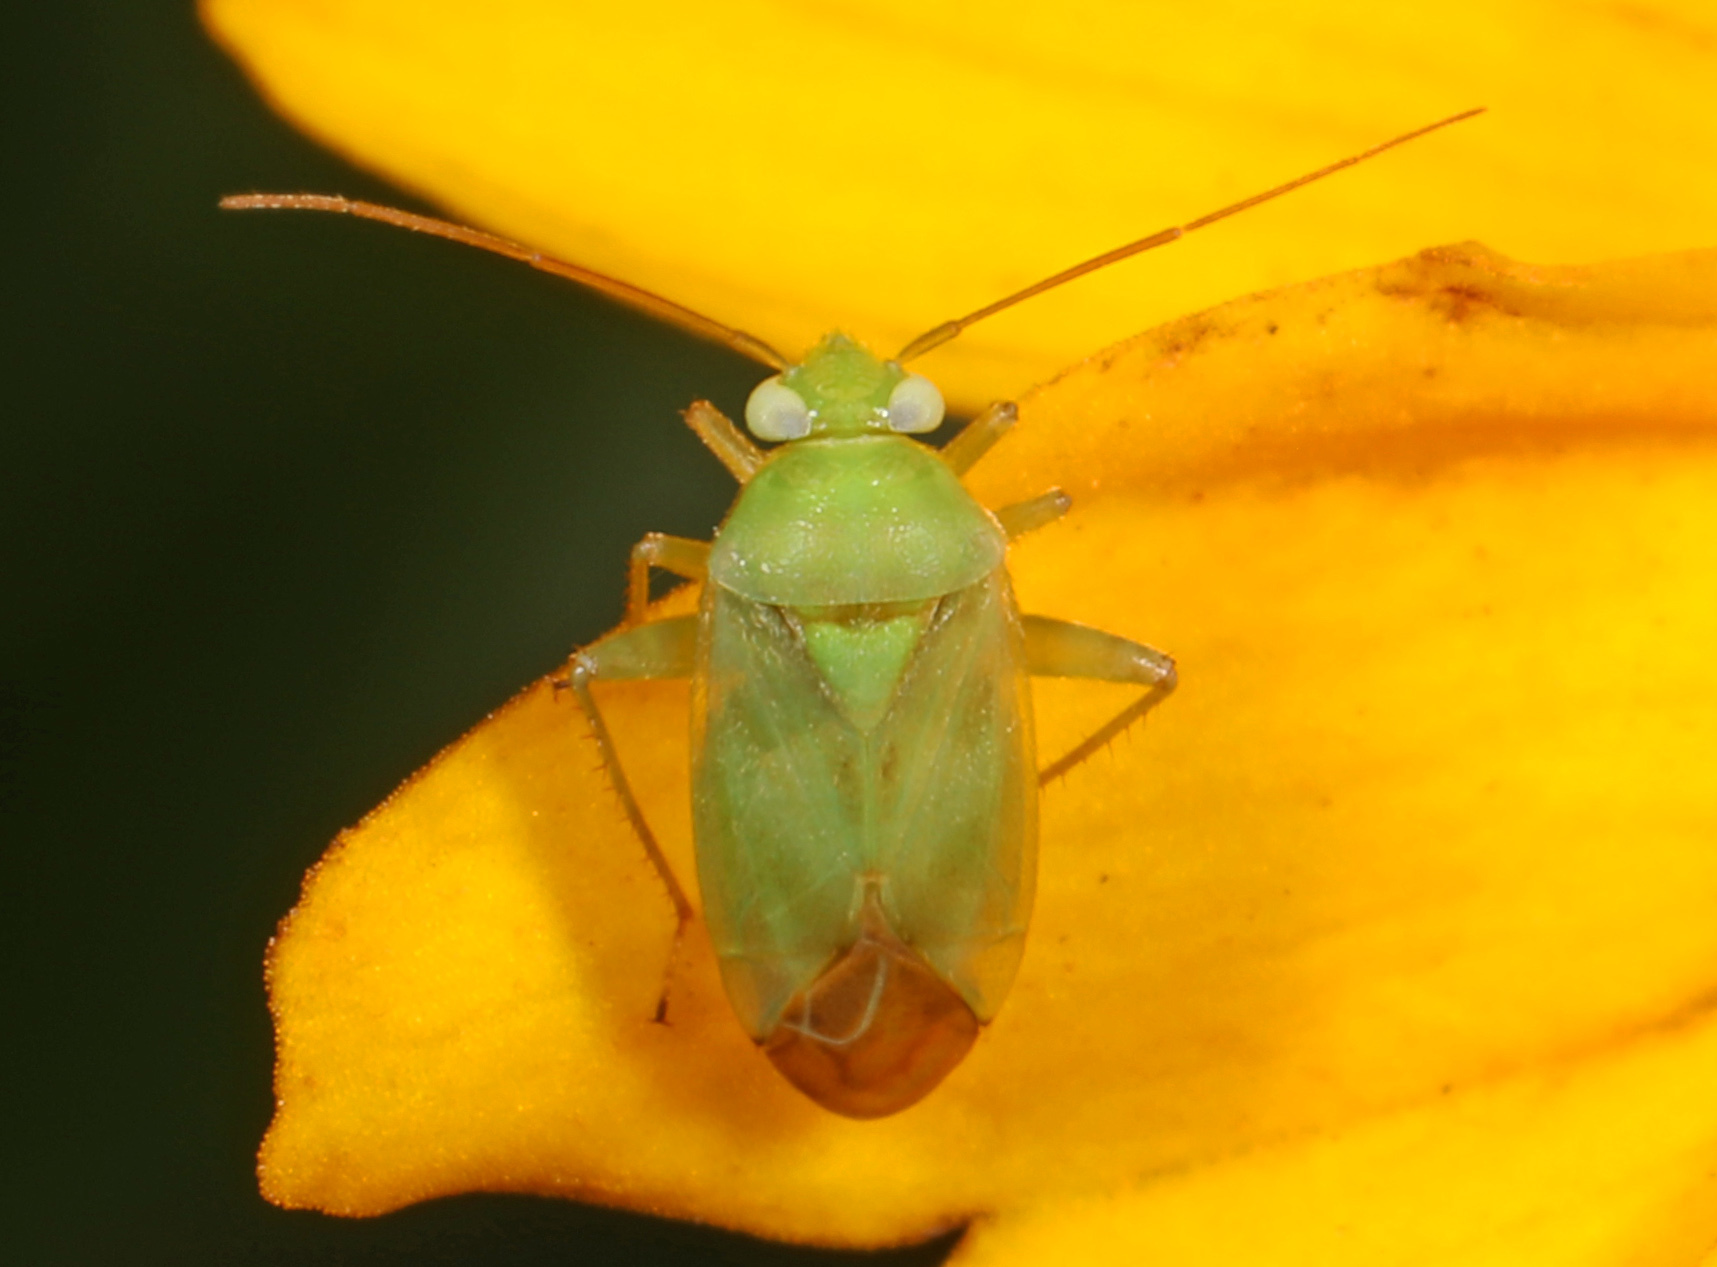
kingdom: Animalia
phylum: Arthropoda
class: Insecta
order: Hemiptera
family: Miridae
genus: Taylorilygus
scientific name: Taylorilygus apicalis
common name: Plant bug
